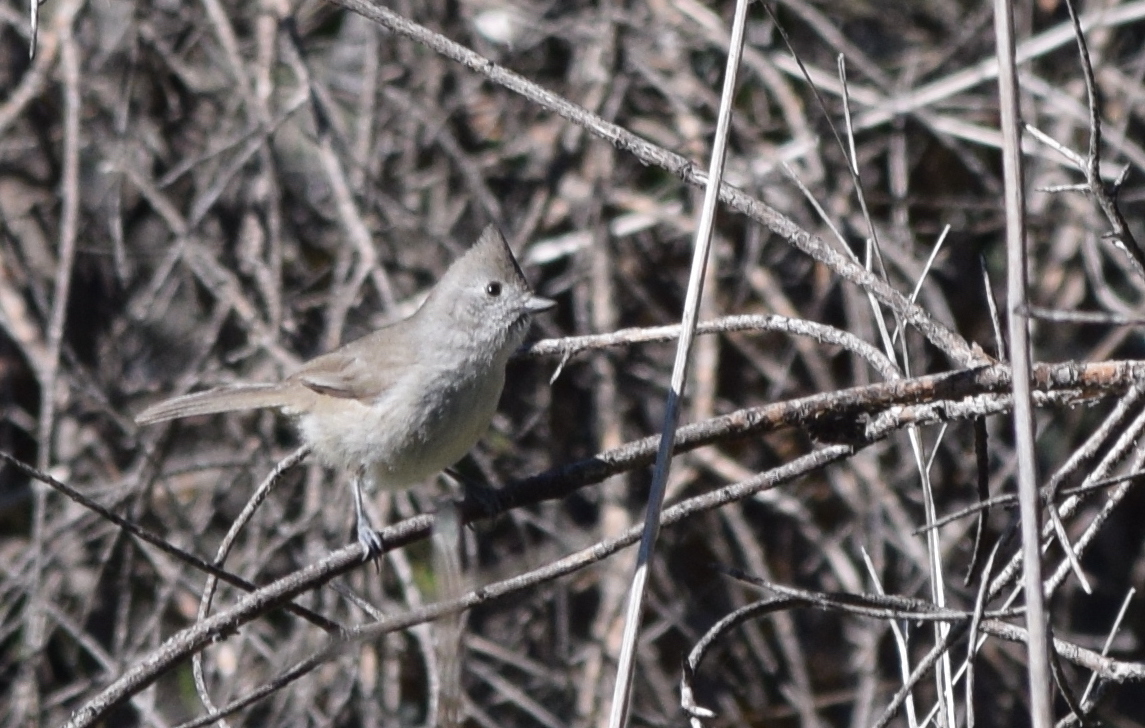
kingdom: Animalia
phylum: Chordata
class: Aves
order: Passeriformes
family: Paridae
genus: Baeolophus
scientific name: Baeolophus inornatus
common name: Oak titmouse
